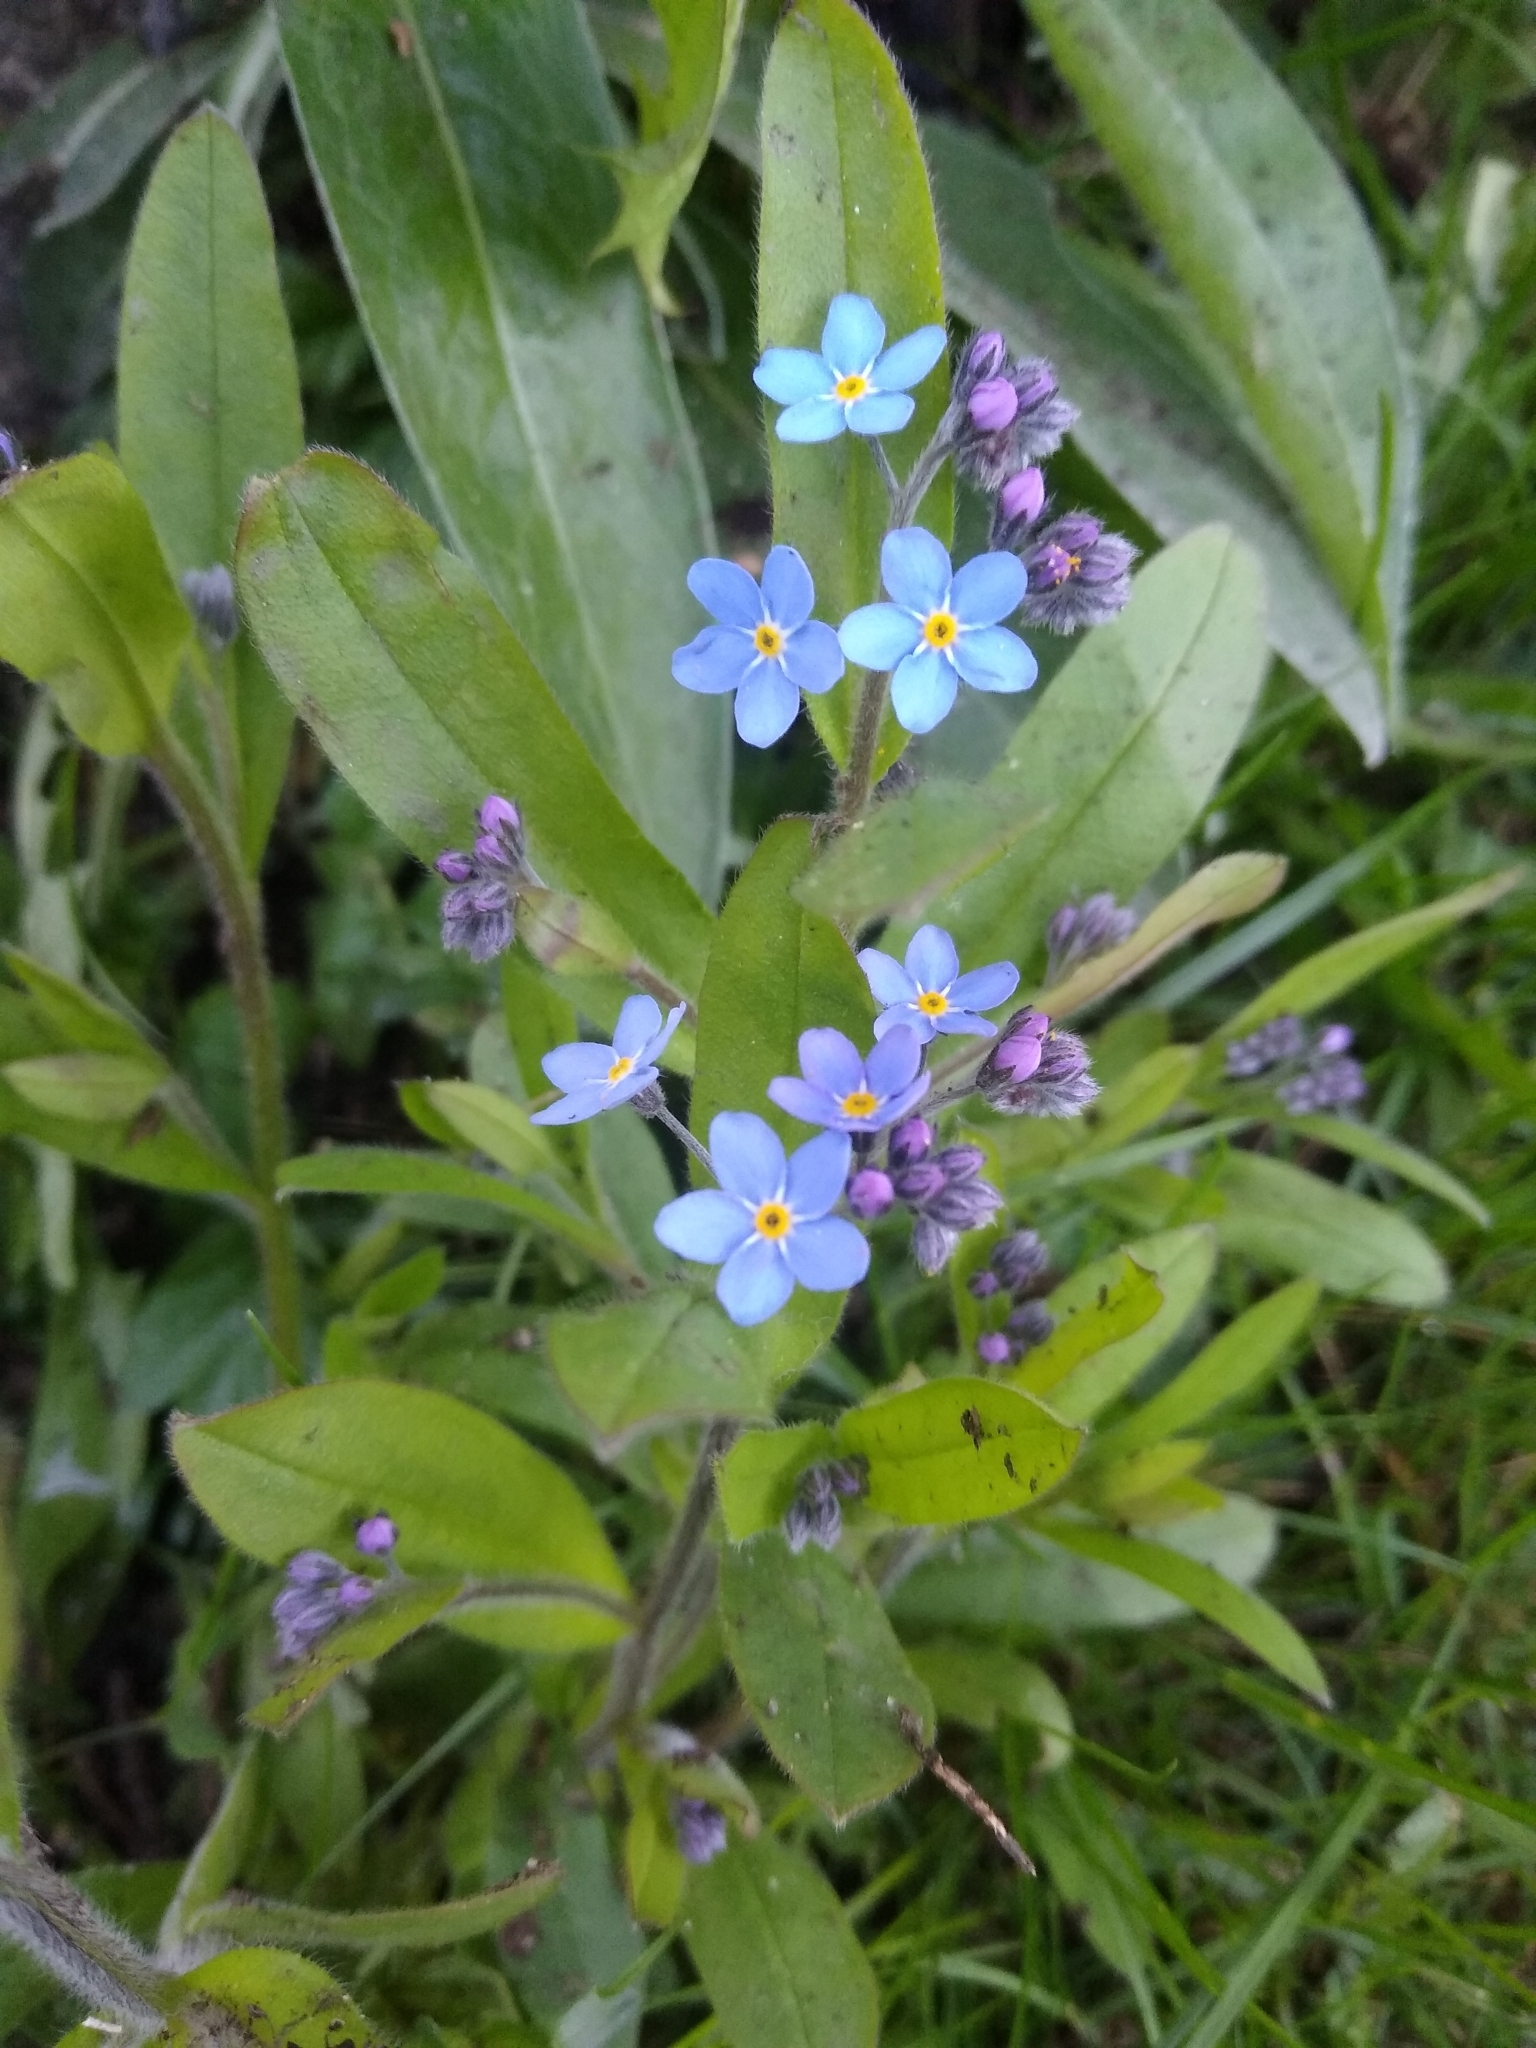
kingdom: Plantae
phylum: Tracheophyta
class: Magnoliopsida
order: Boraginales
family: Boraginaceae
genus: Myosotis
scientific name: Myosotis sylvatica
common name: Wood forget-me-not
